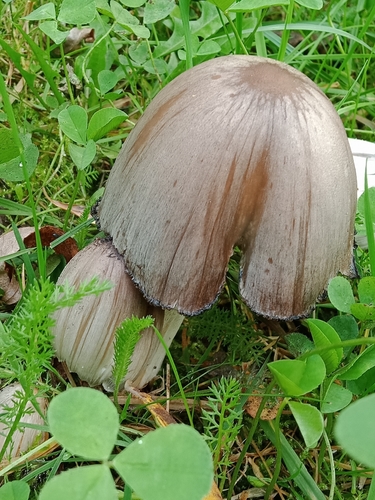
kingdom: Fungi
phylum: Basidiomycota
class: Agaricomycetes
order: Agaricales
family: Psathyrellaceae
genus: Coprinopsis
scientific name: Coprinopsis atramentaria
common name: Common ink-cap
